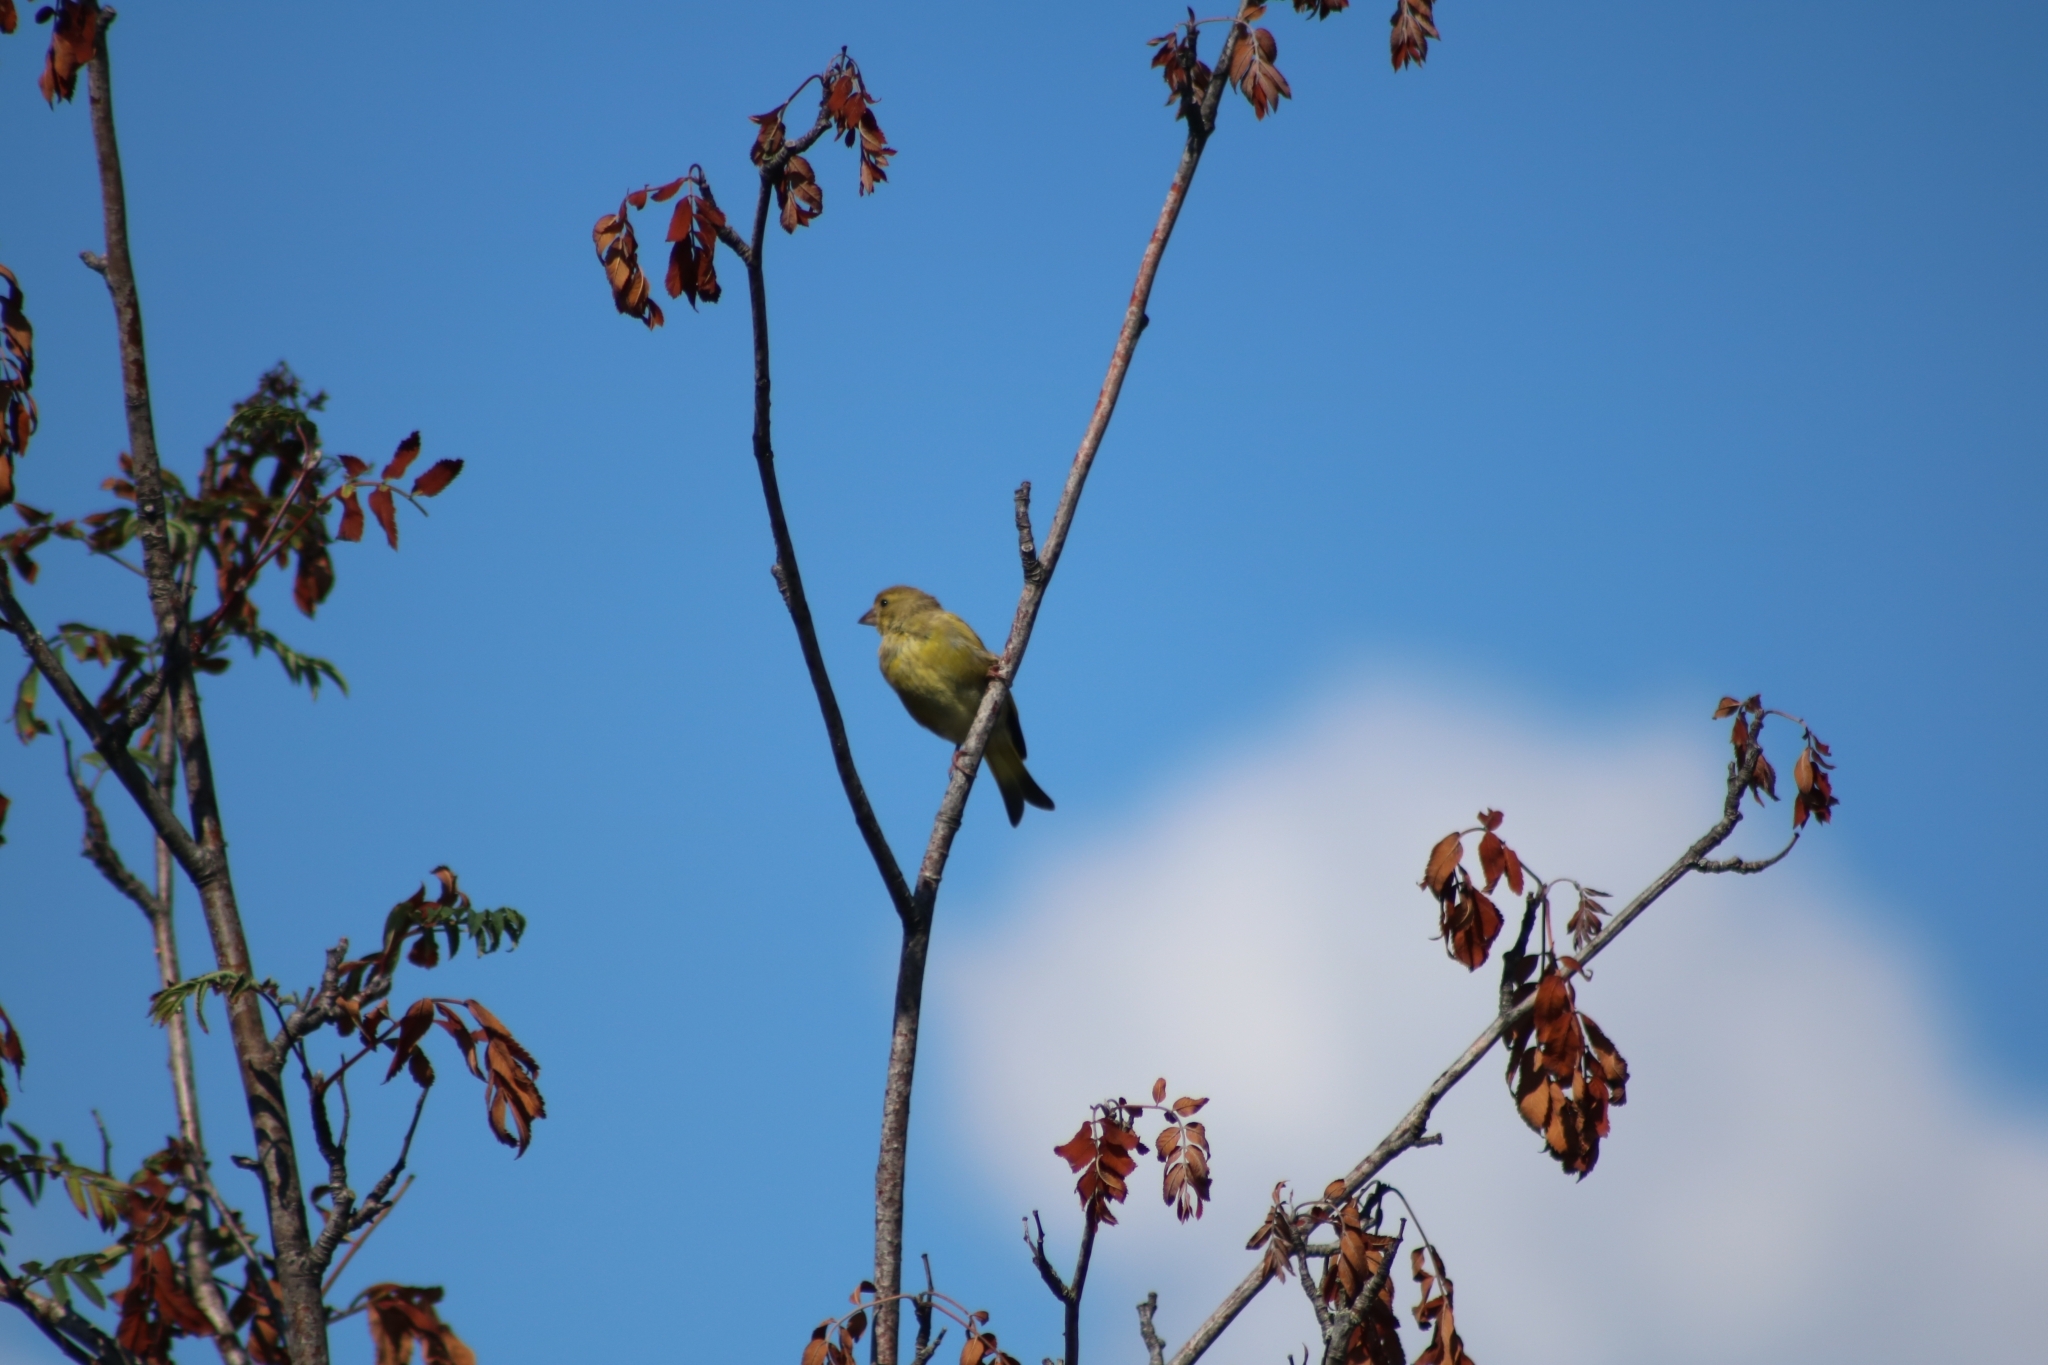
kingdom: Plantae
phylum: Tracheophyta
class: Liliopsida
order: Poales
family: Poaceae
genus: Chloris
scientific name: Chloris chloris
